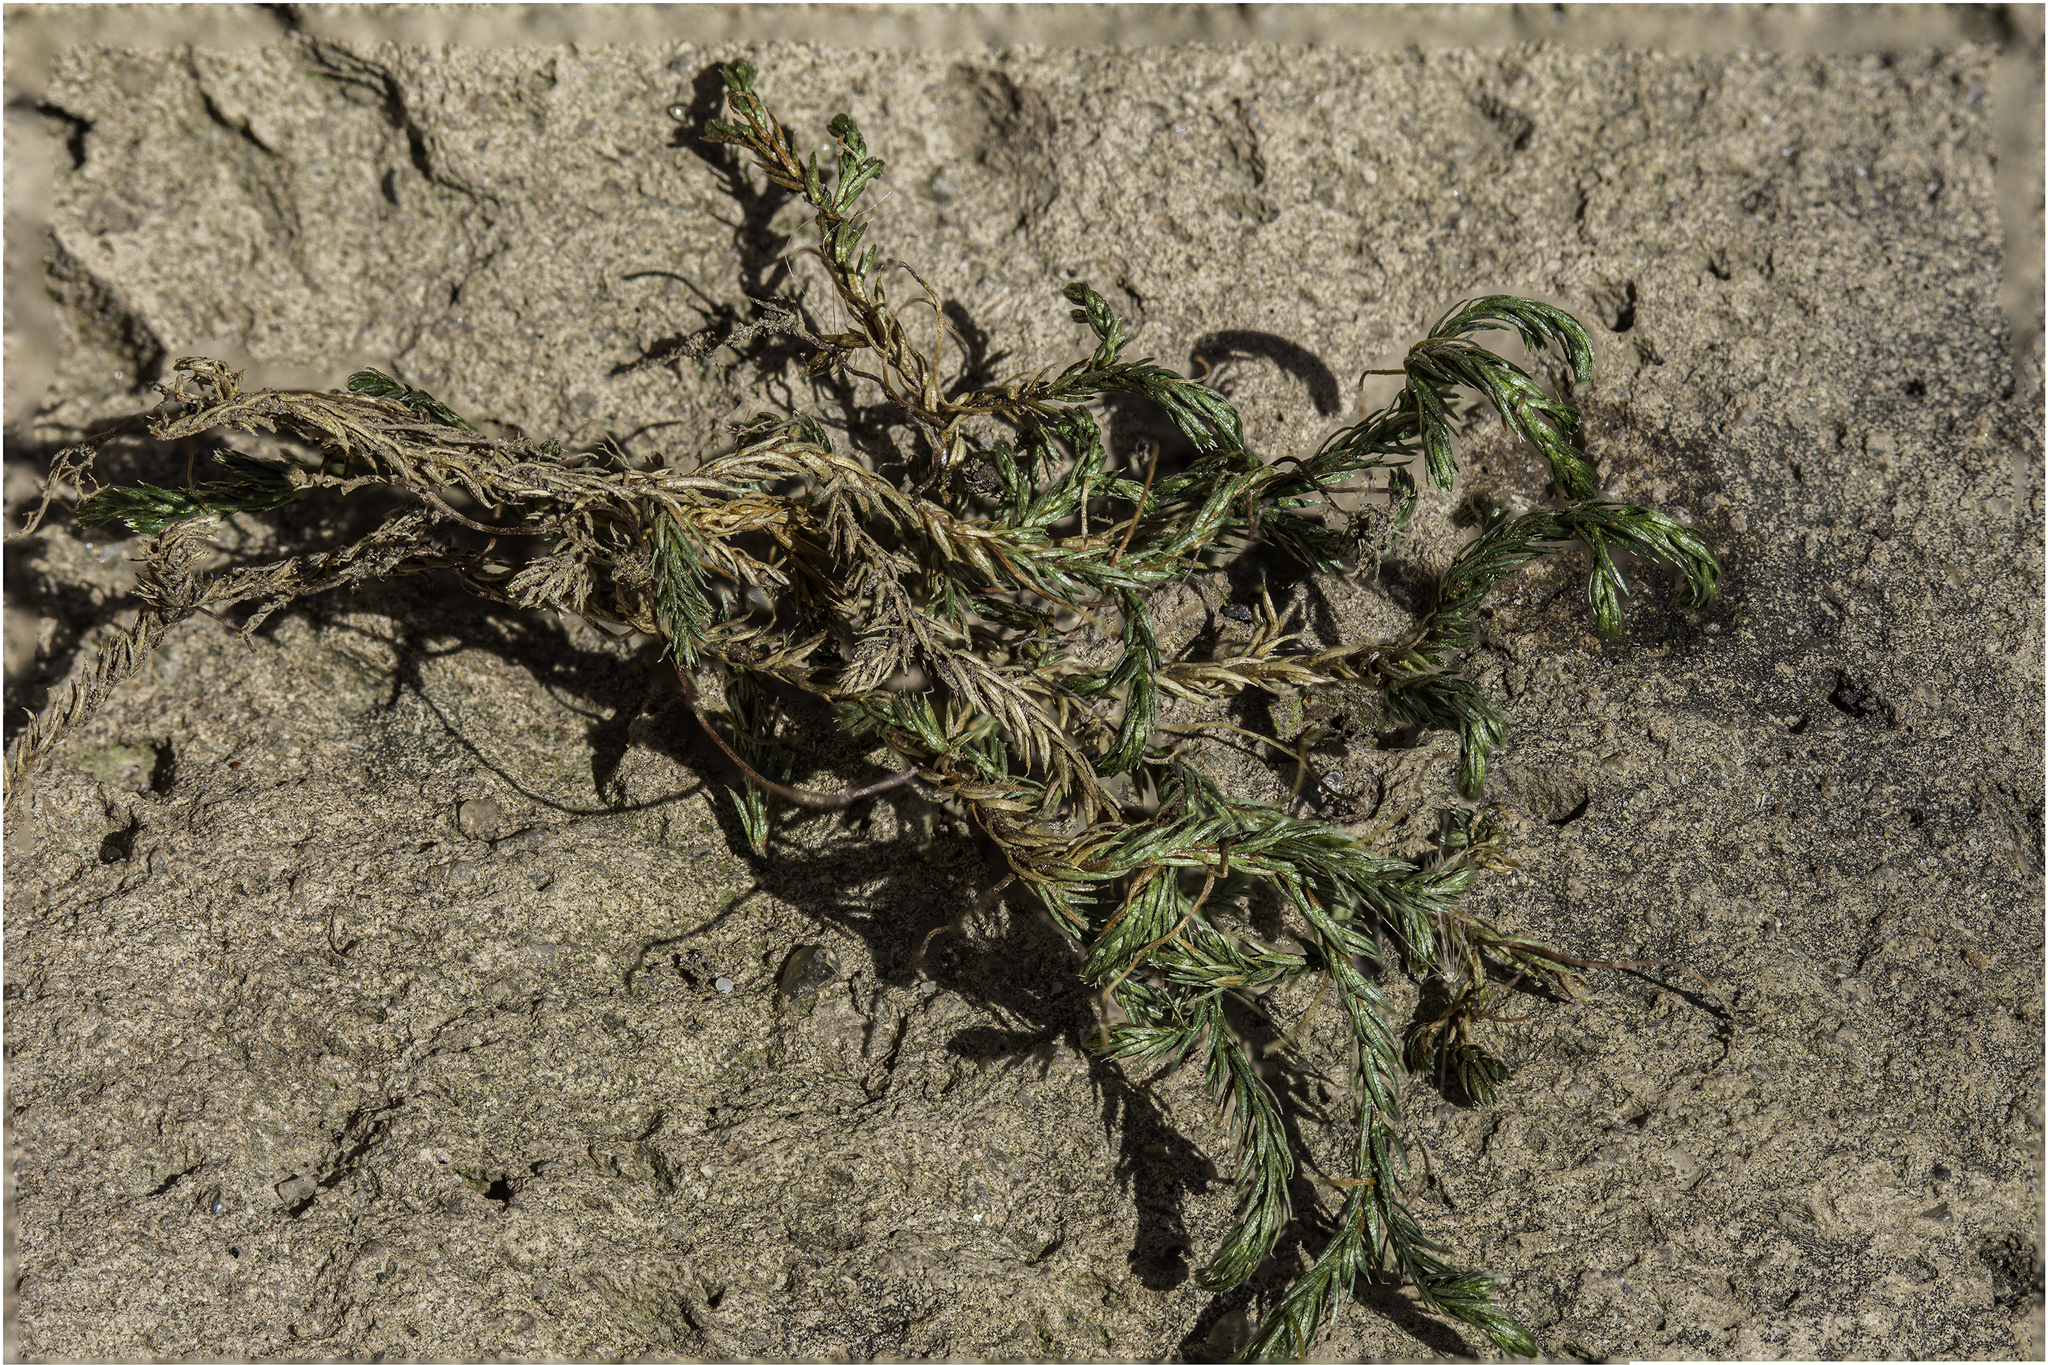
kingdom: Plantae
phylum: Tracheophyta
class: Lycopodiopsida
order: Selaginellales
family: Selaginellaceae
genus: Selaginella
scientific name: Selaginella underwoodii
